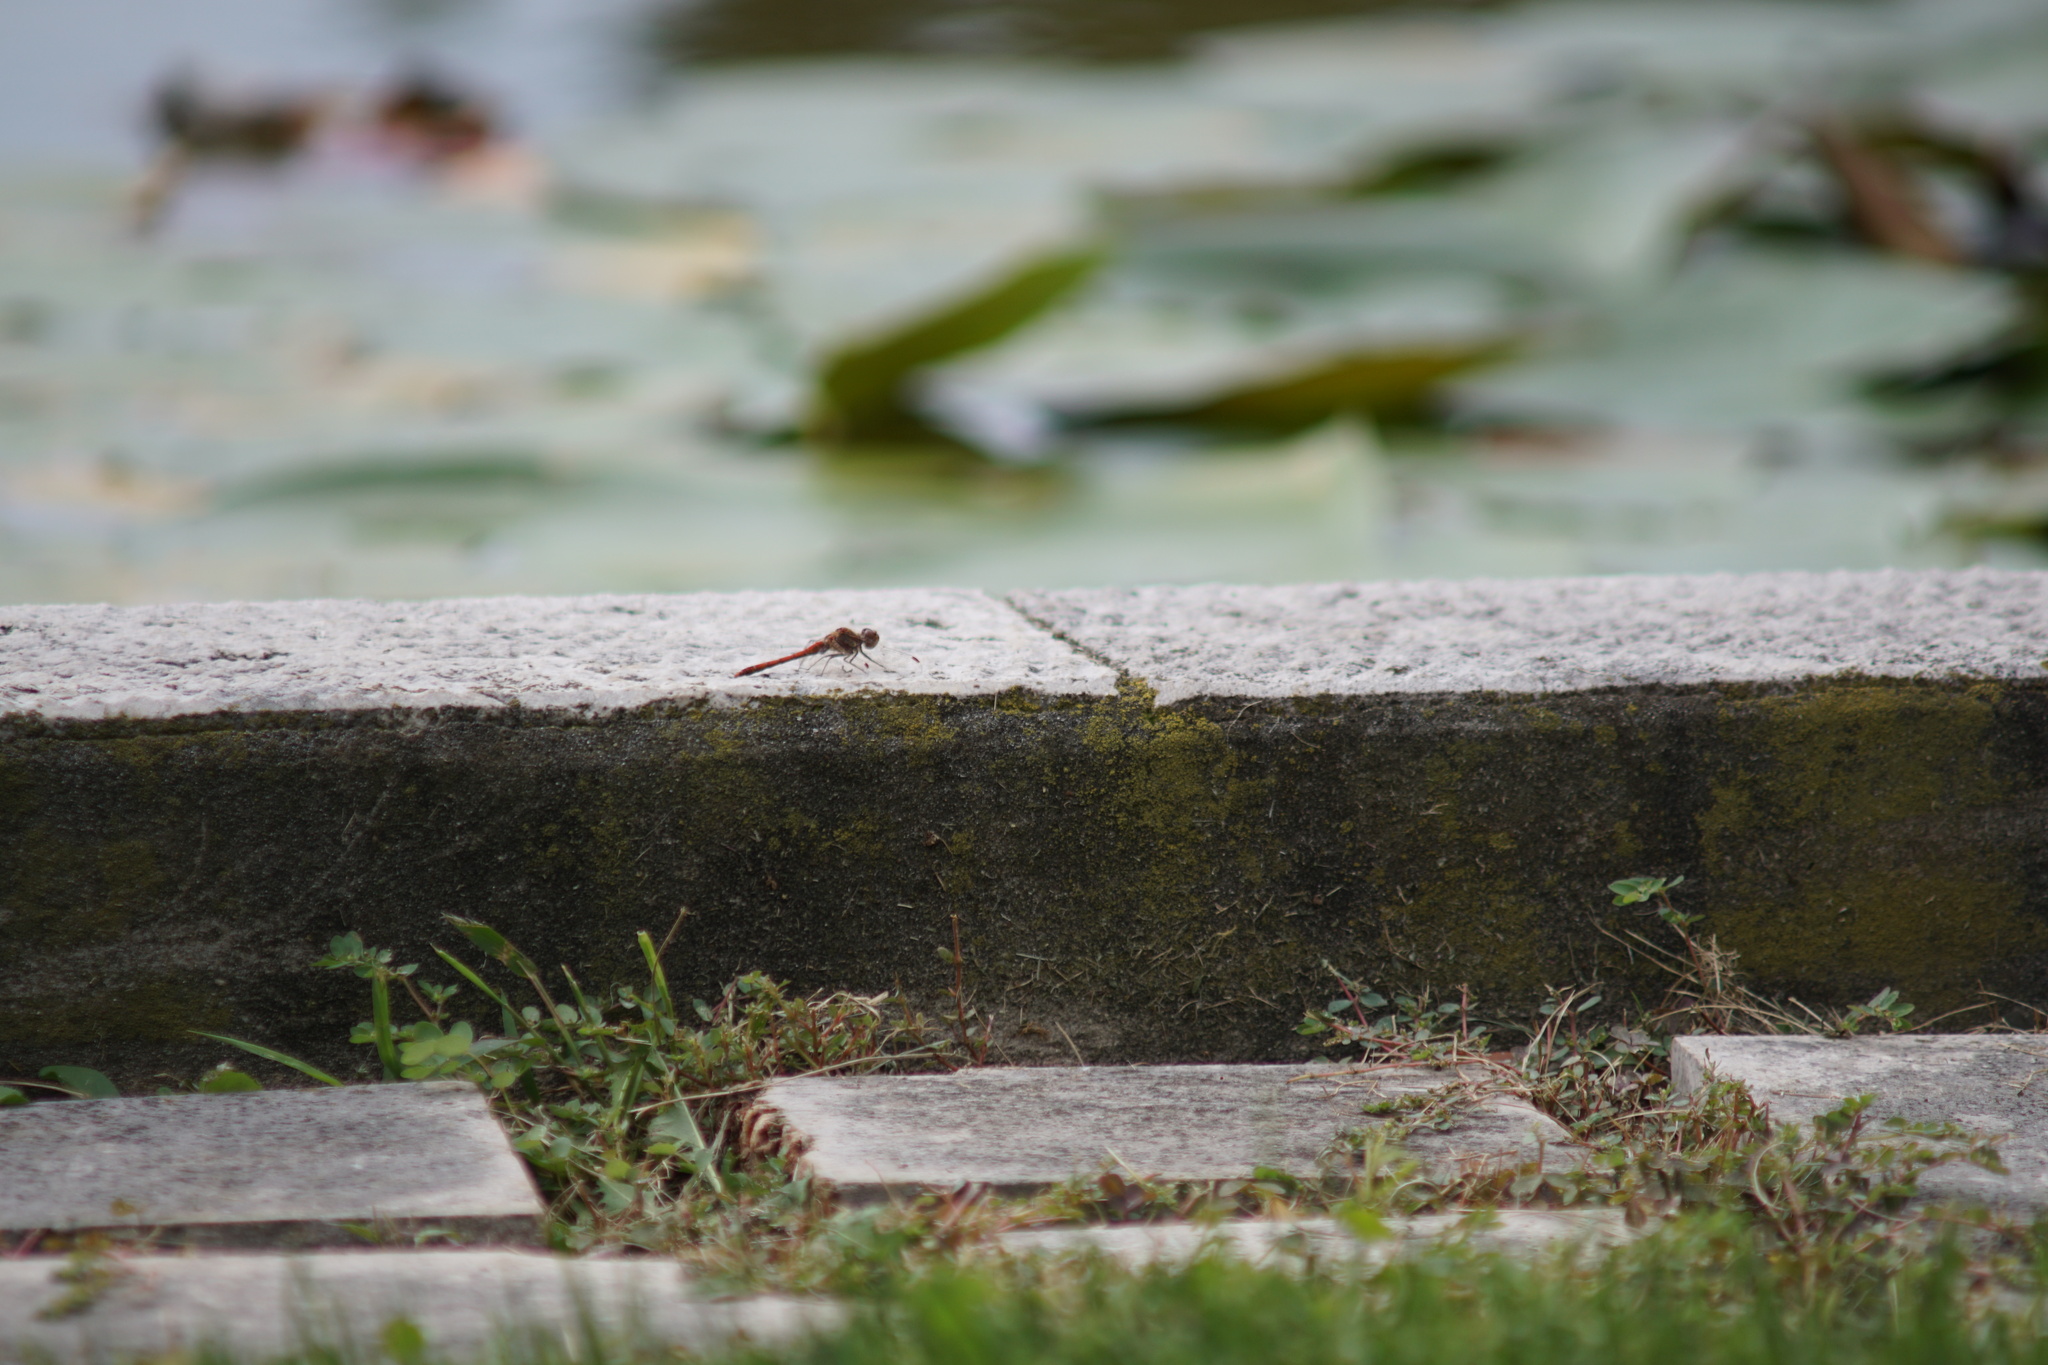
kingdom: Animalia
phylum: Arthropoda
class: Insecta
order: Odonata
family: Libellulidae
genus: Sympetrum
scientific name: Sympetrum striolatum
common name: Common darter
